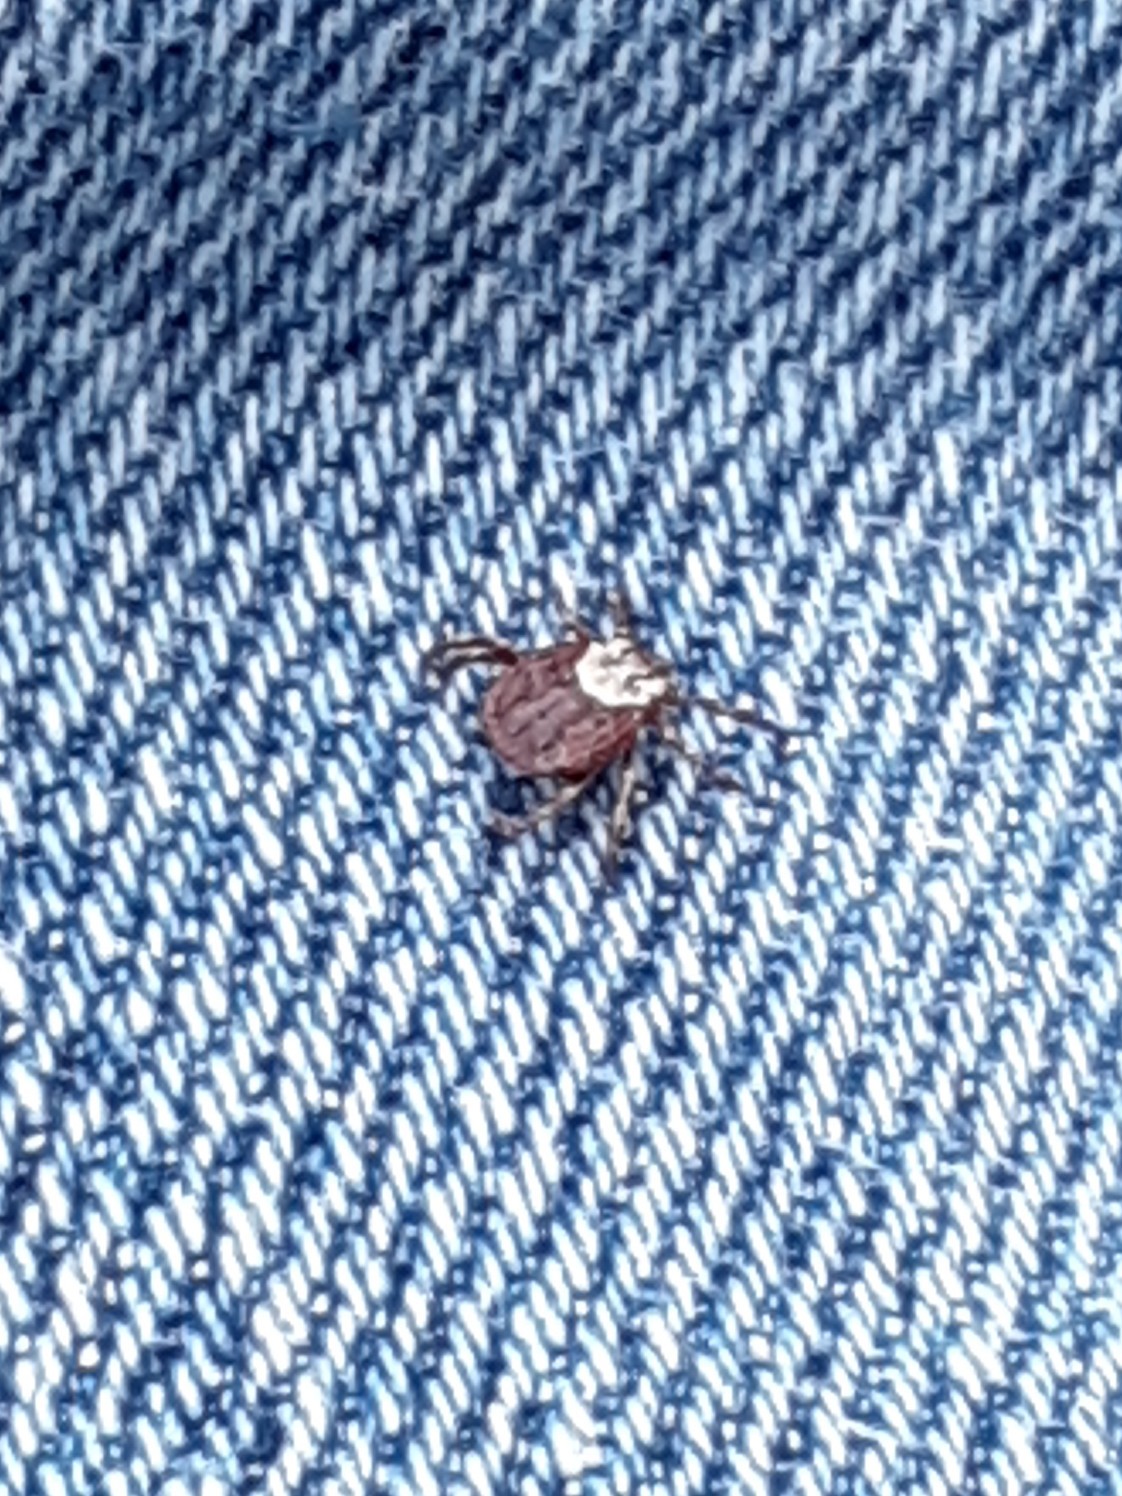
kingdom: Animalia
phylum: Arthropoda
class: Arachnida
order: Ixodida
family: Ixodidae
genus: Dermacentor
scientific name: Dermacentor variabilis
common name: American dog tick
